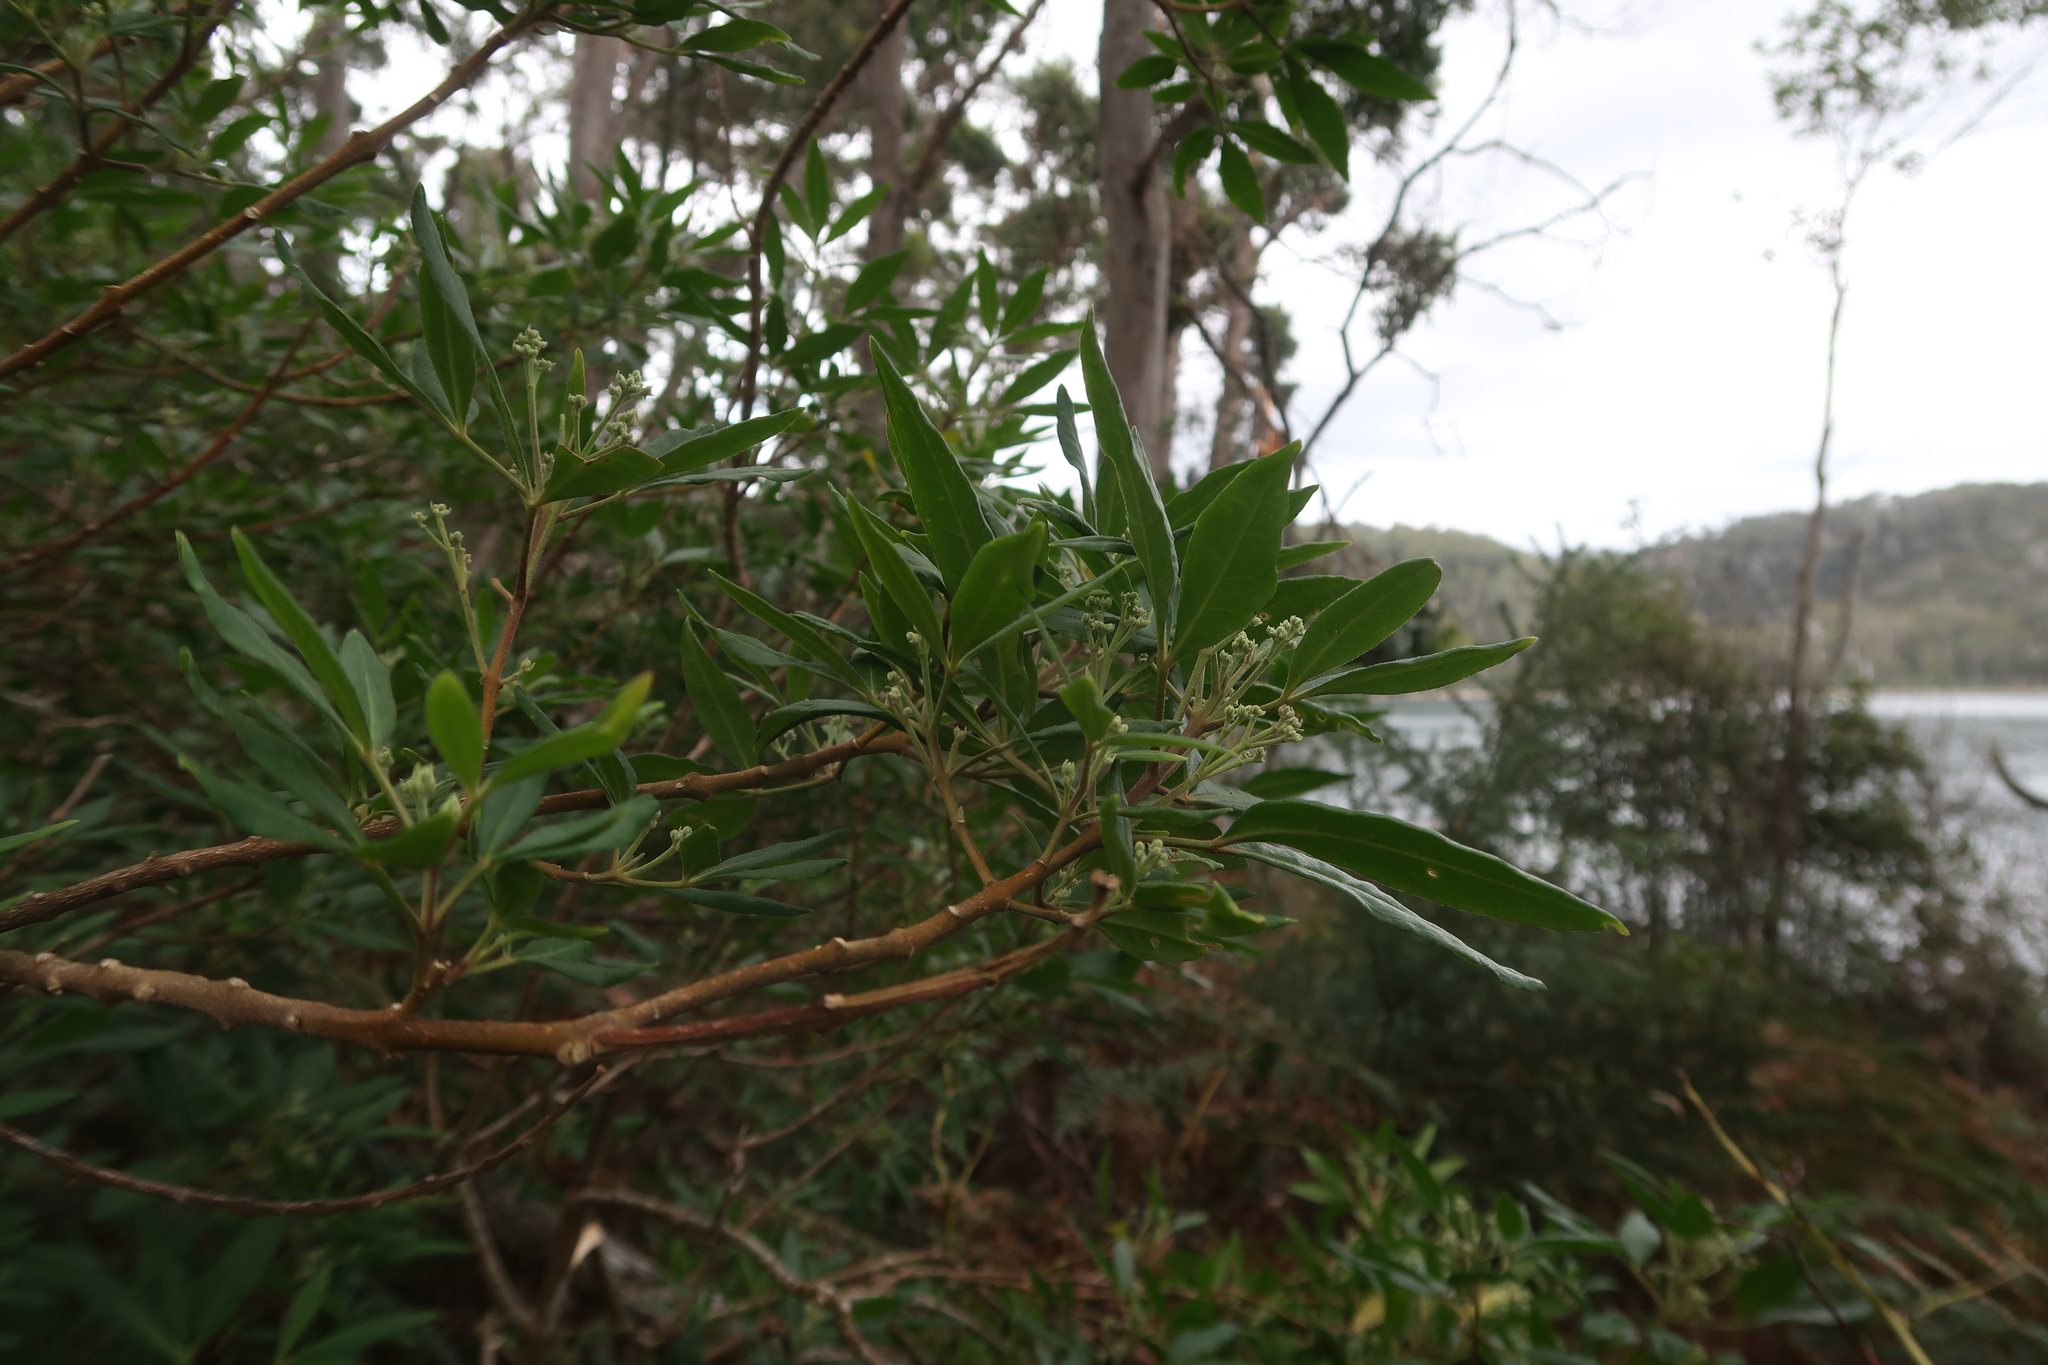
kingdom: Plantae
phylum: Tracheophyta
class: Magnoliopsida
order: Sapindales
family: Rutaceae
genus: Zieria
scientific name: Zieria arborescens
